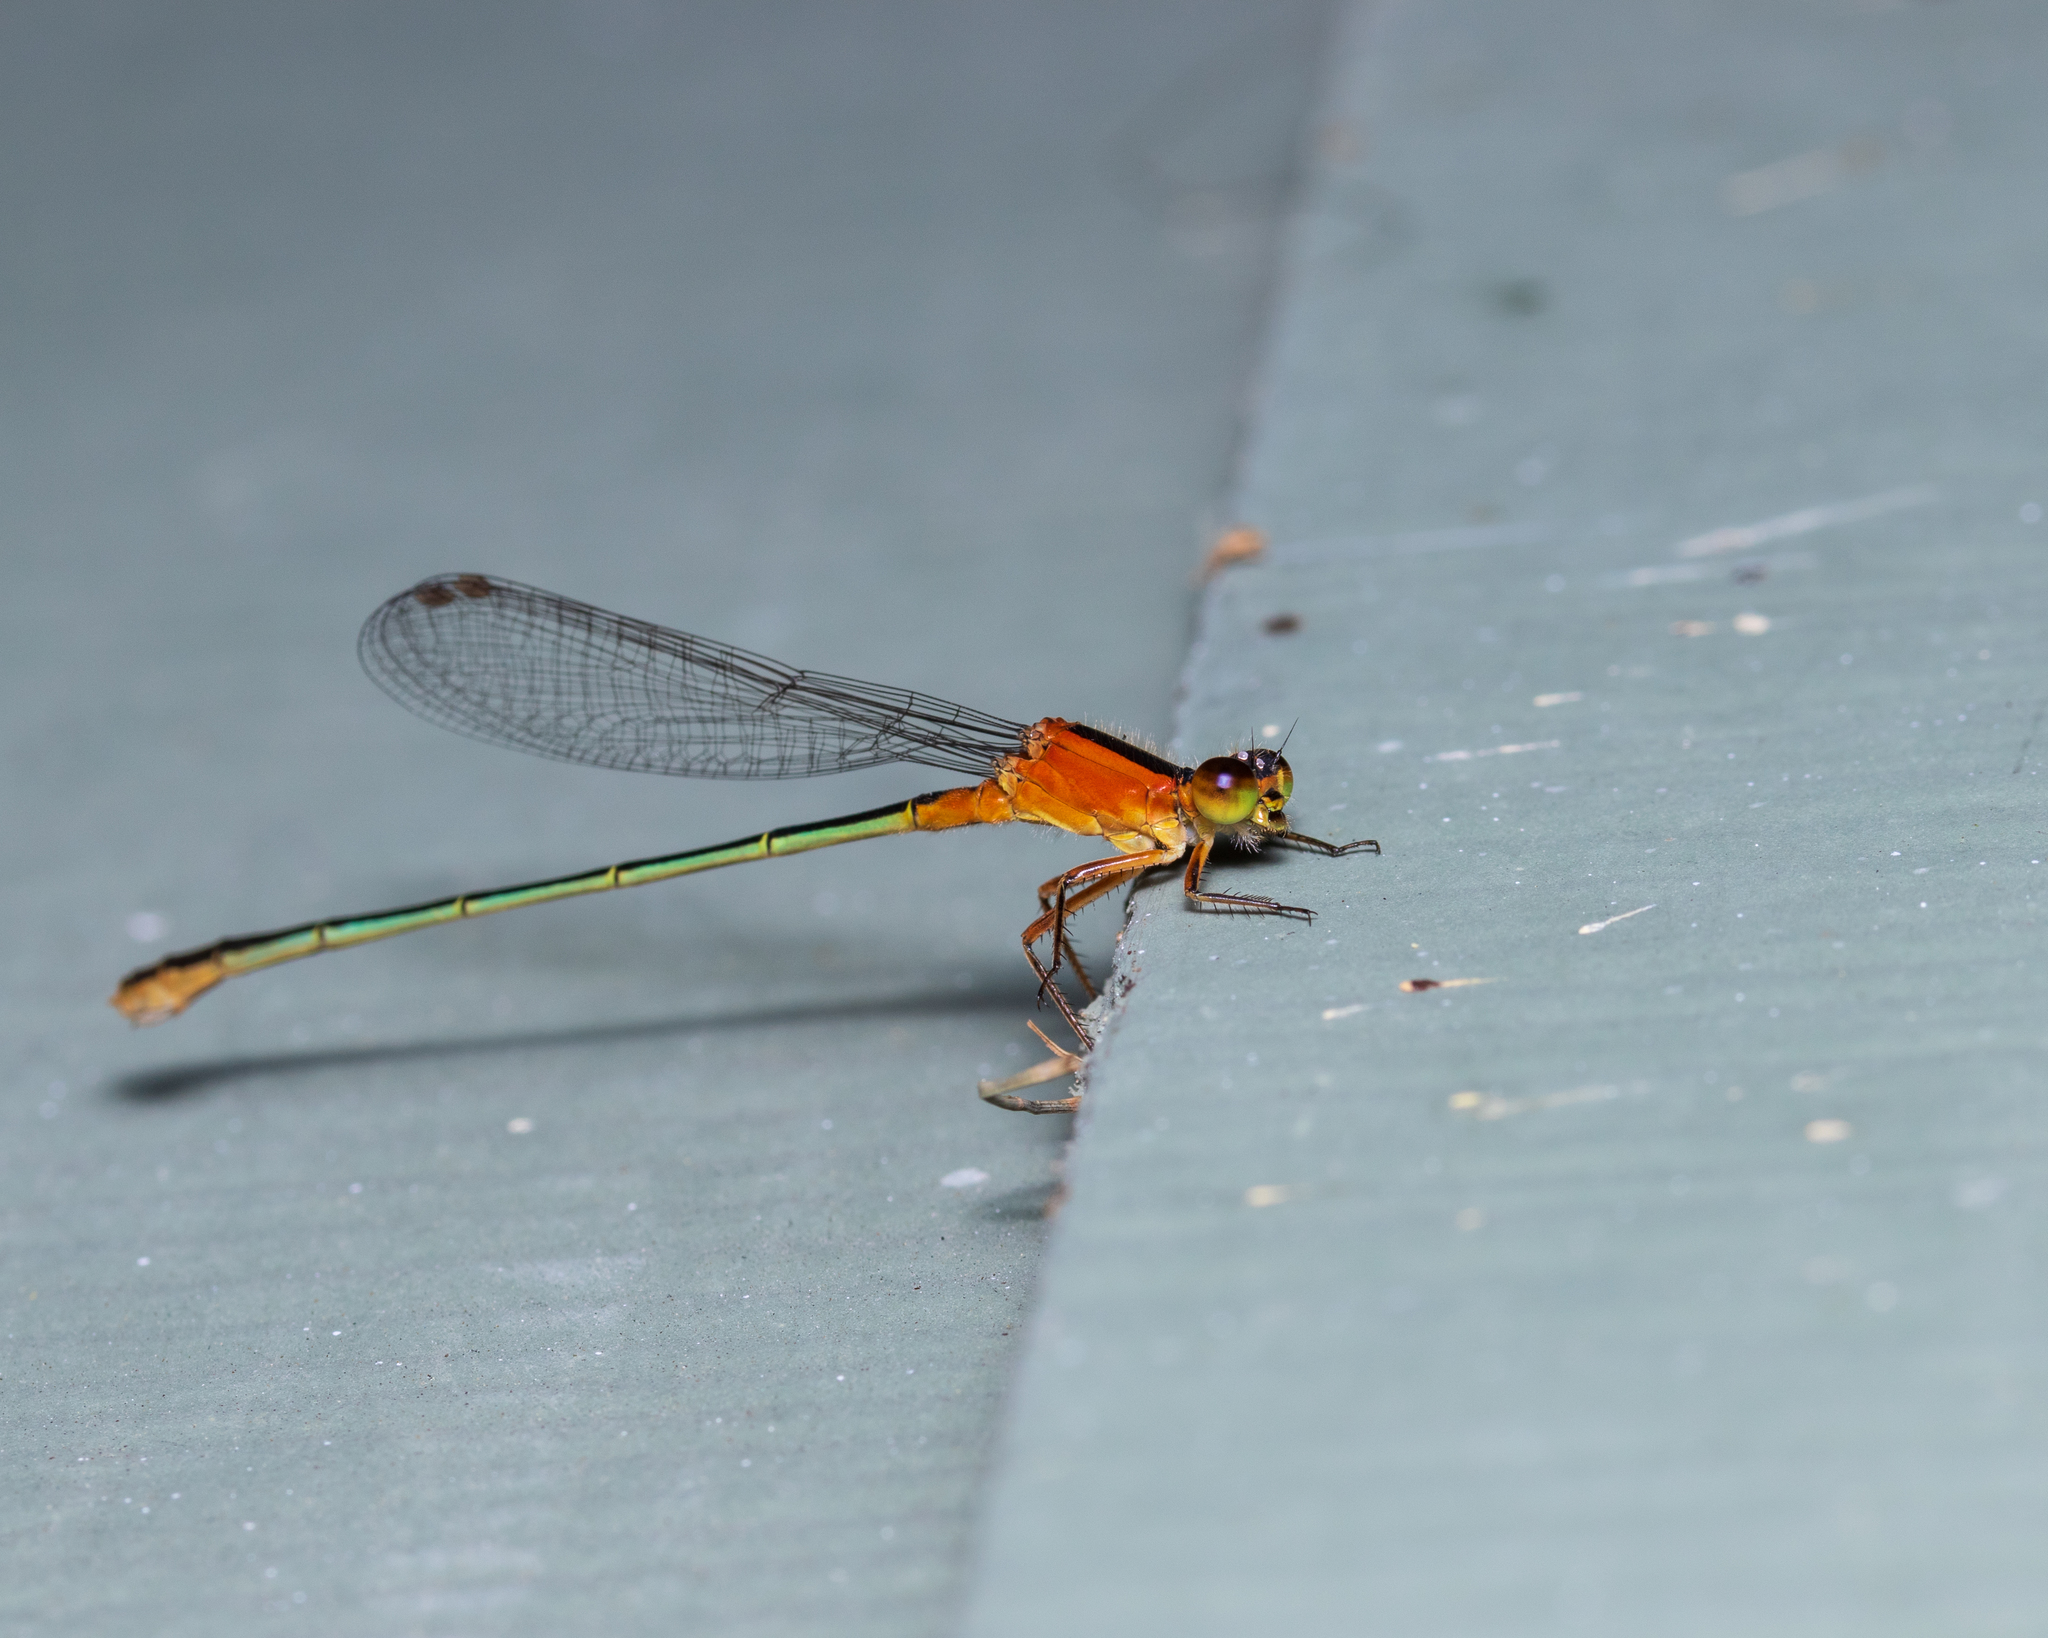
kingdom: Animalia
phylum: Arthropoda
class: Insecta
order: Odonata
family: Coenagrionidae
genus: Ischnura
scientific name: Ischnura ramburii
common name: Rambur's forktail
